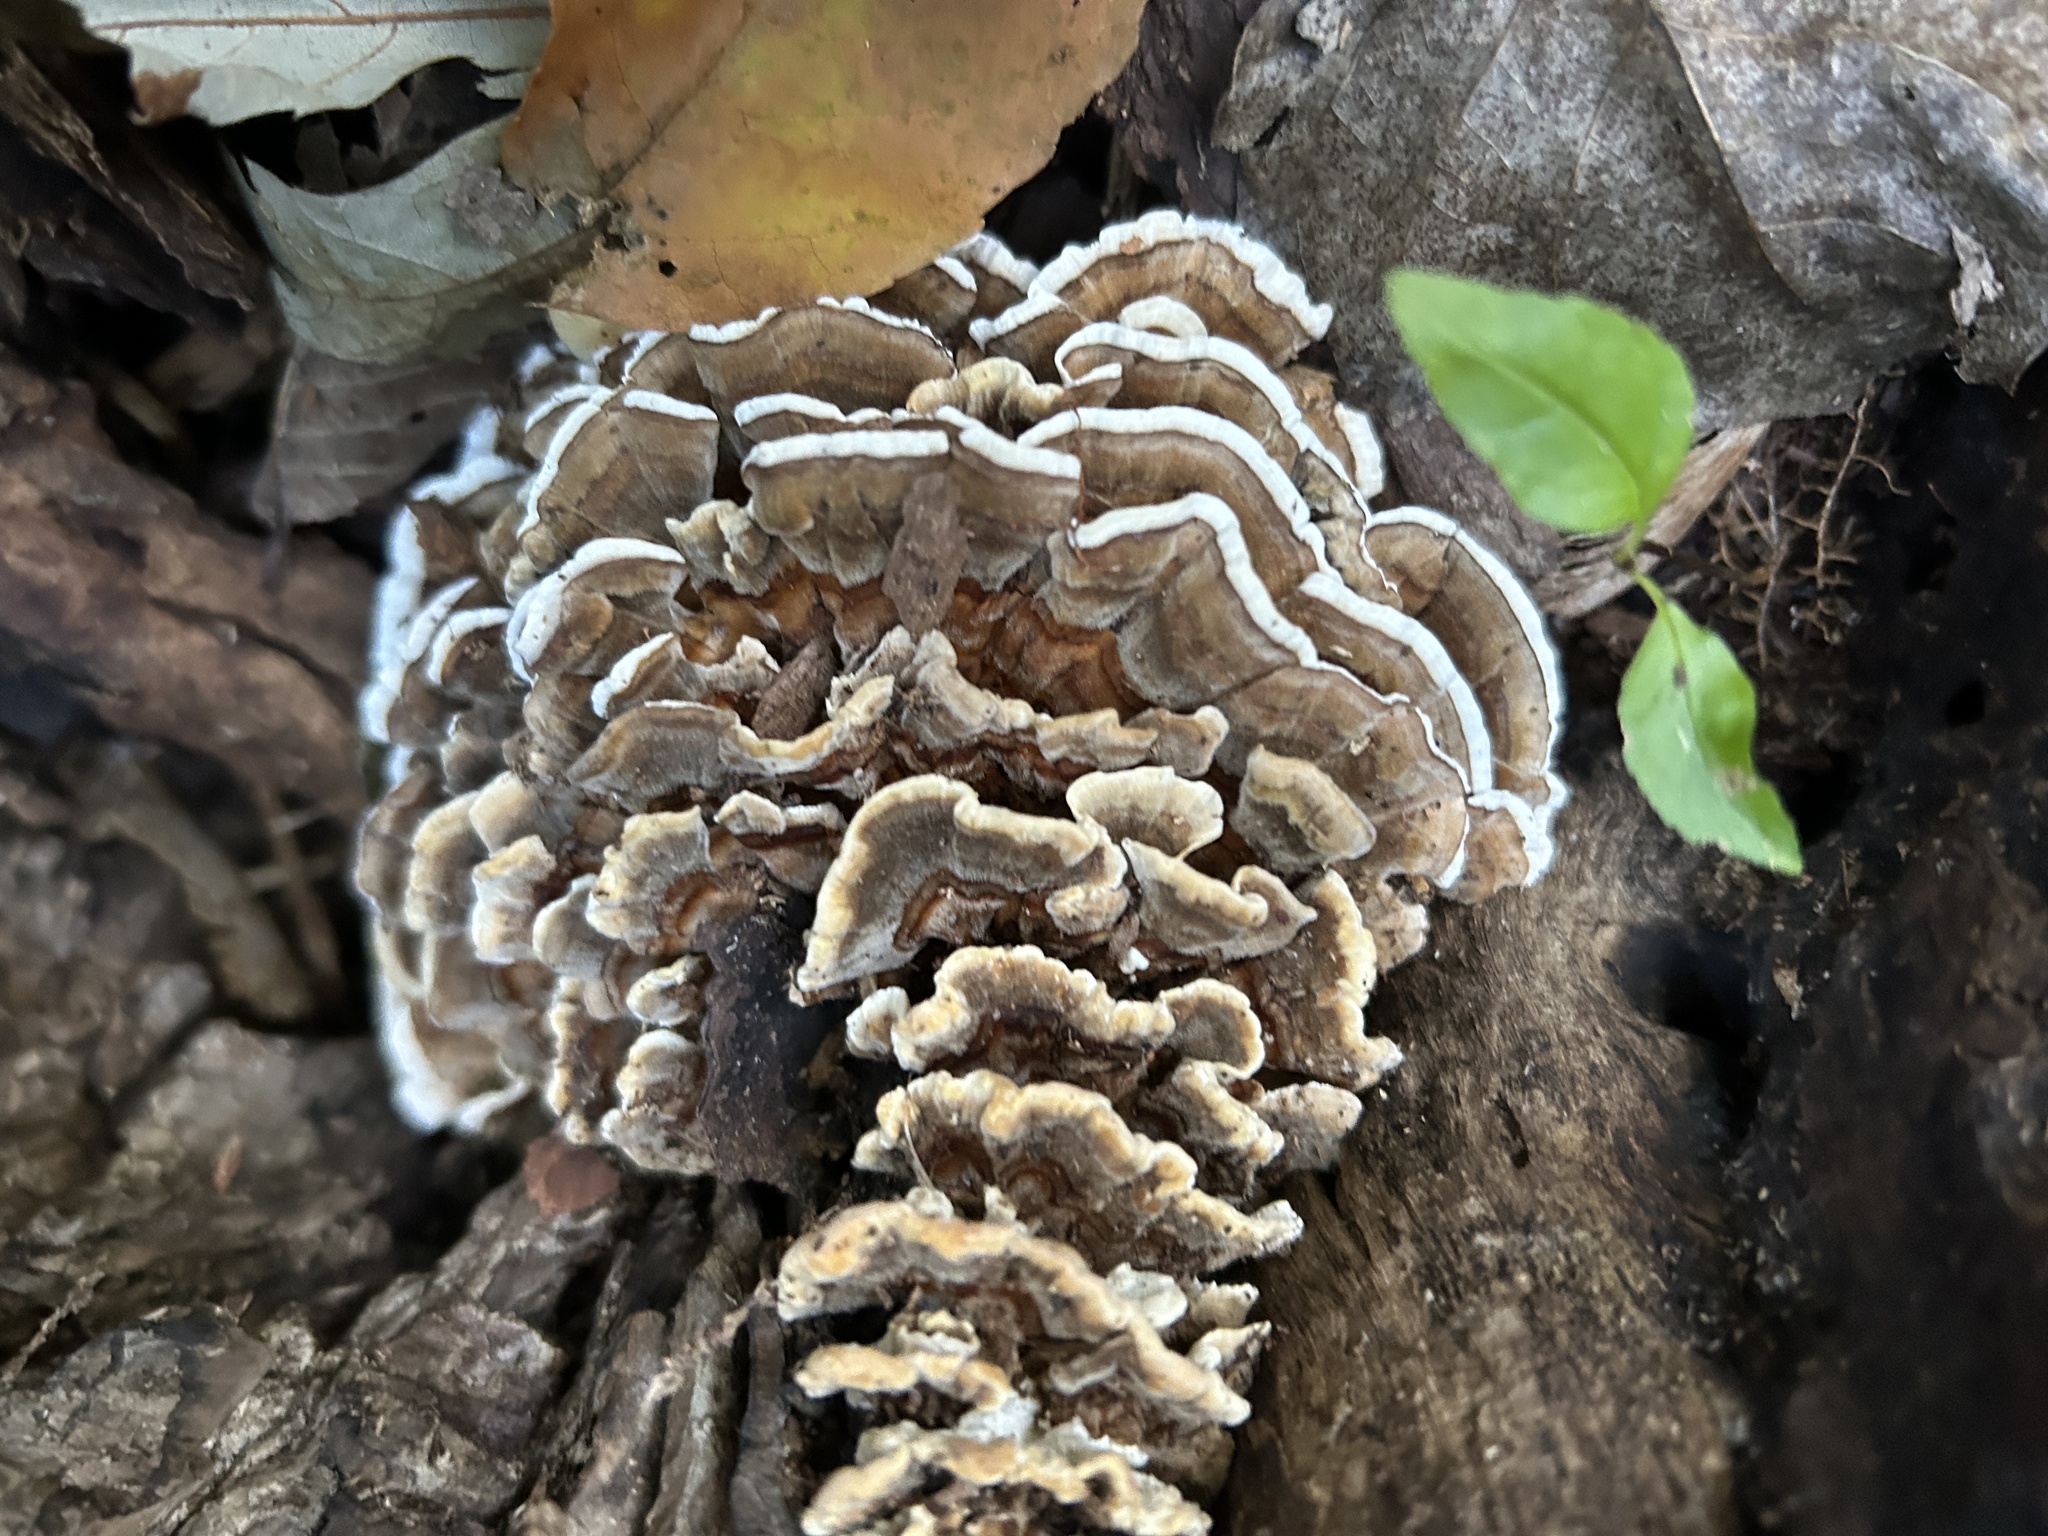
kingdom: Fungi
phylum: Basidiomycota
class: Agaricomycetes
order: Polyporales
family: Polyporaceae
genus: Trametes
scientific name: Trametes versicolor
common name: Turkeytail
